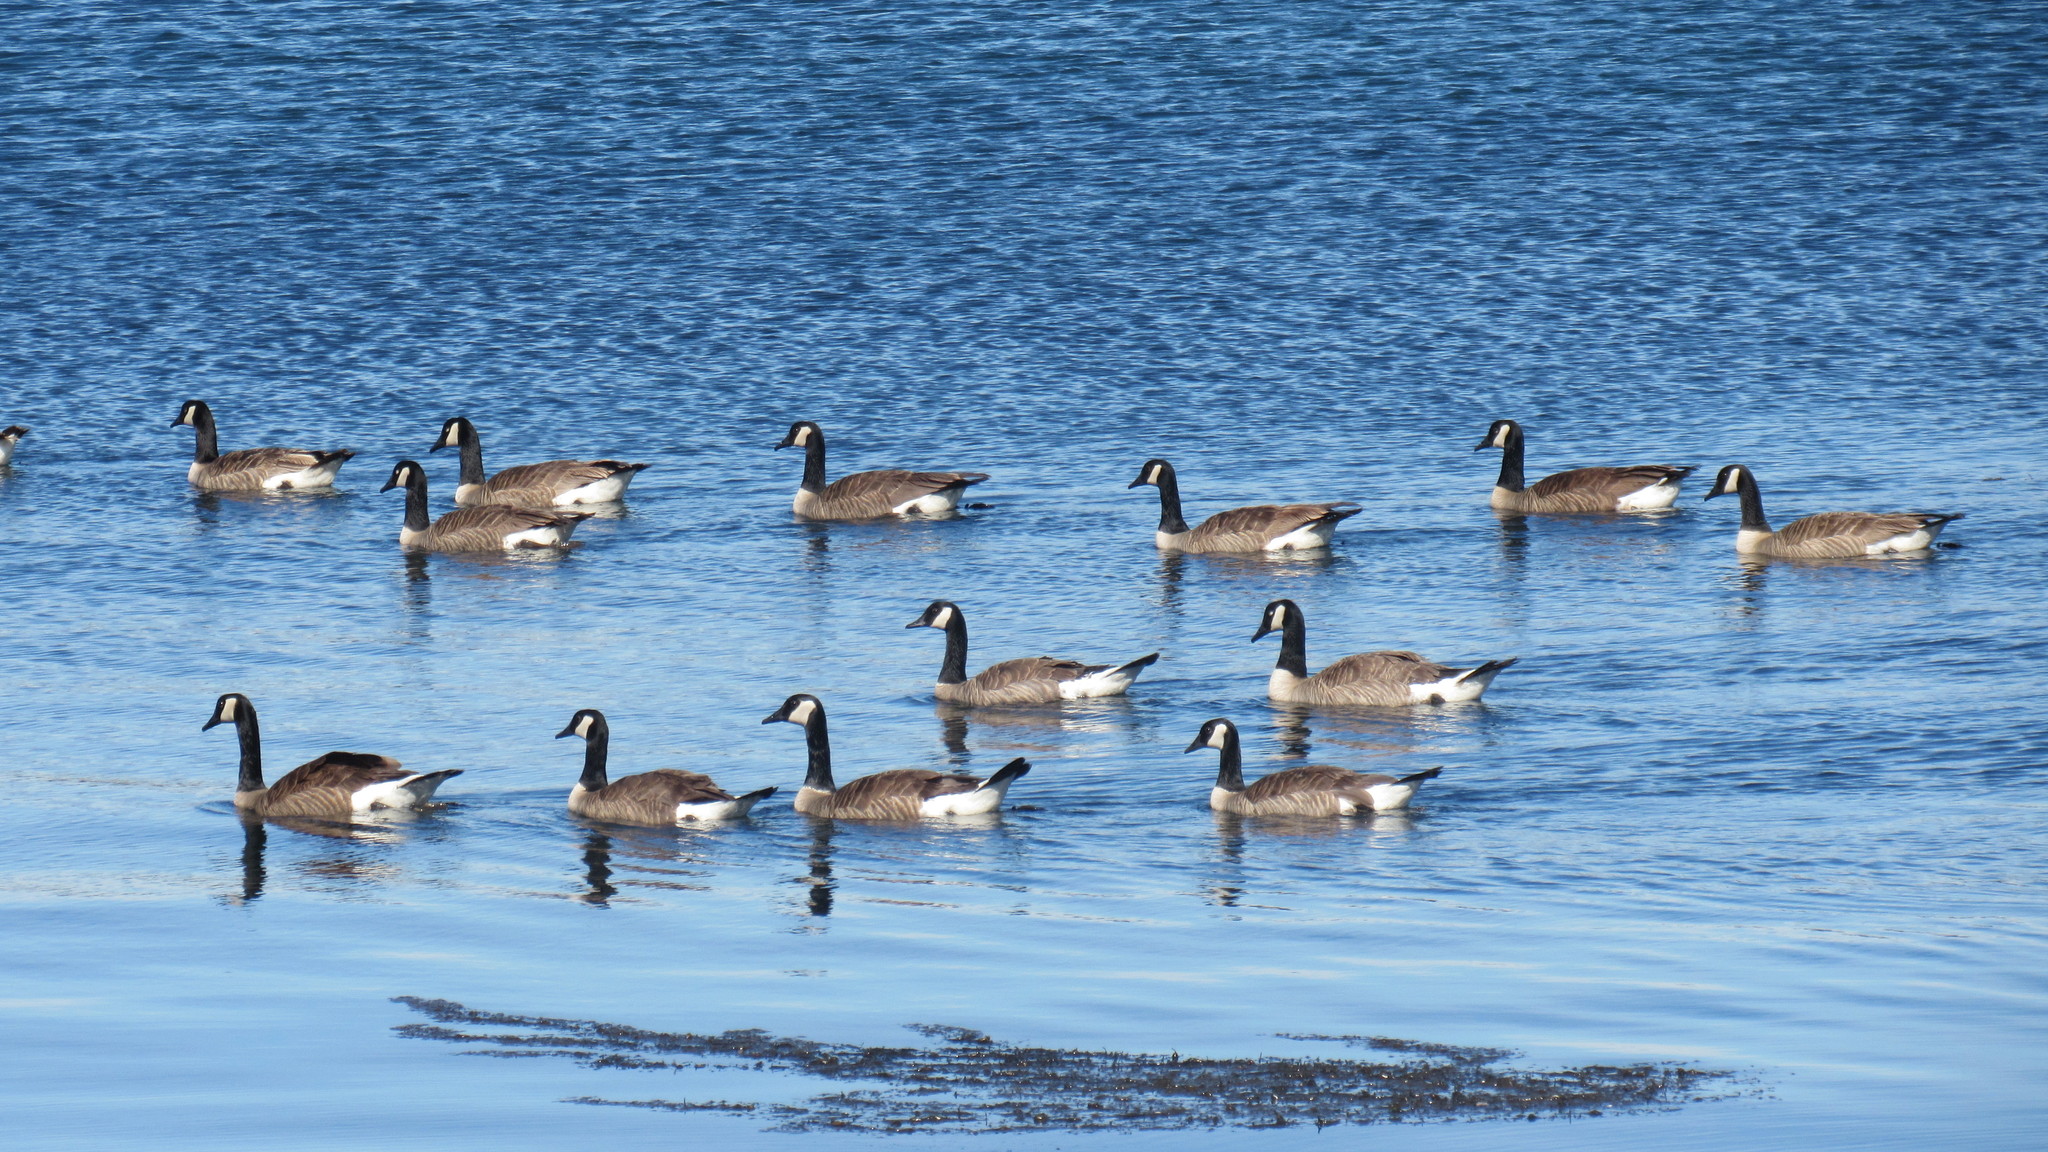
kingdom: Animalia
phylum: Chordata
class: Aves
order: Anseriformes
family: Anatidae
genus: Branta
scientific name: Branta canadensis
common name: Canada goose
